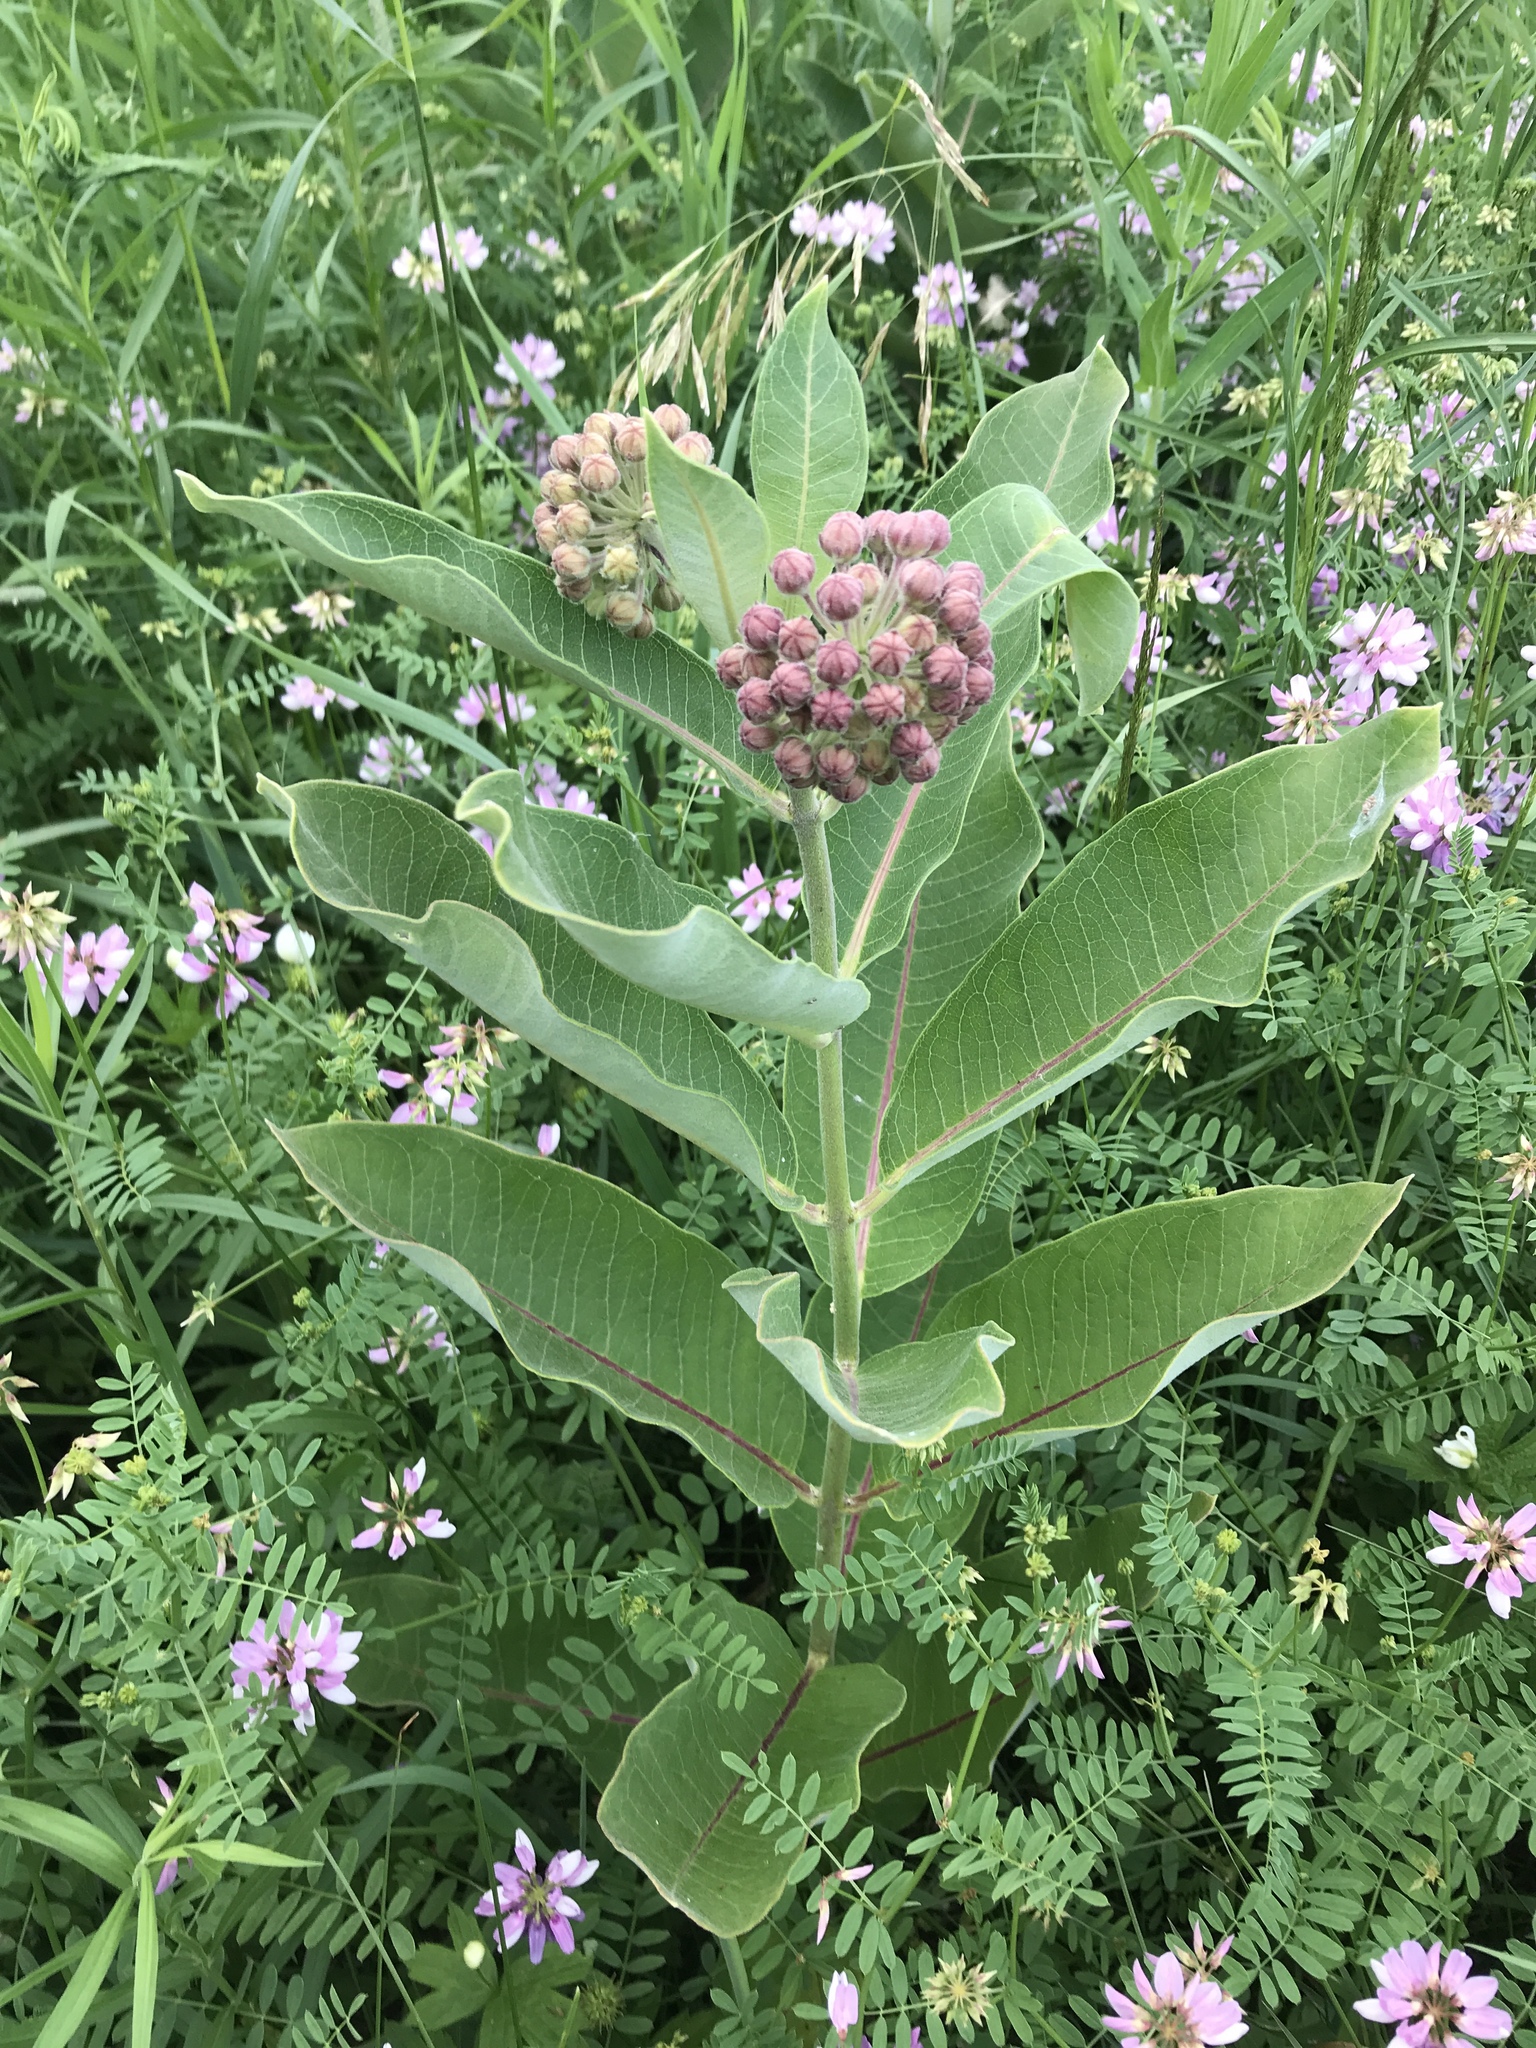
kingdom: Plantae
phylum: Tracheophyta
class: Magnoliopsida
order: Gentianales
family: Apocynaceae
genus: Asclepias
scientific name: Asclepias syriaca
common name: Common milkweed
